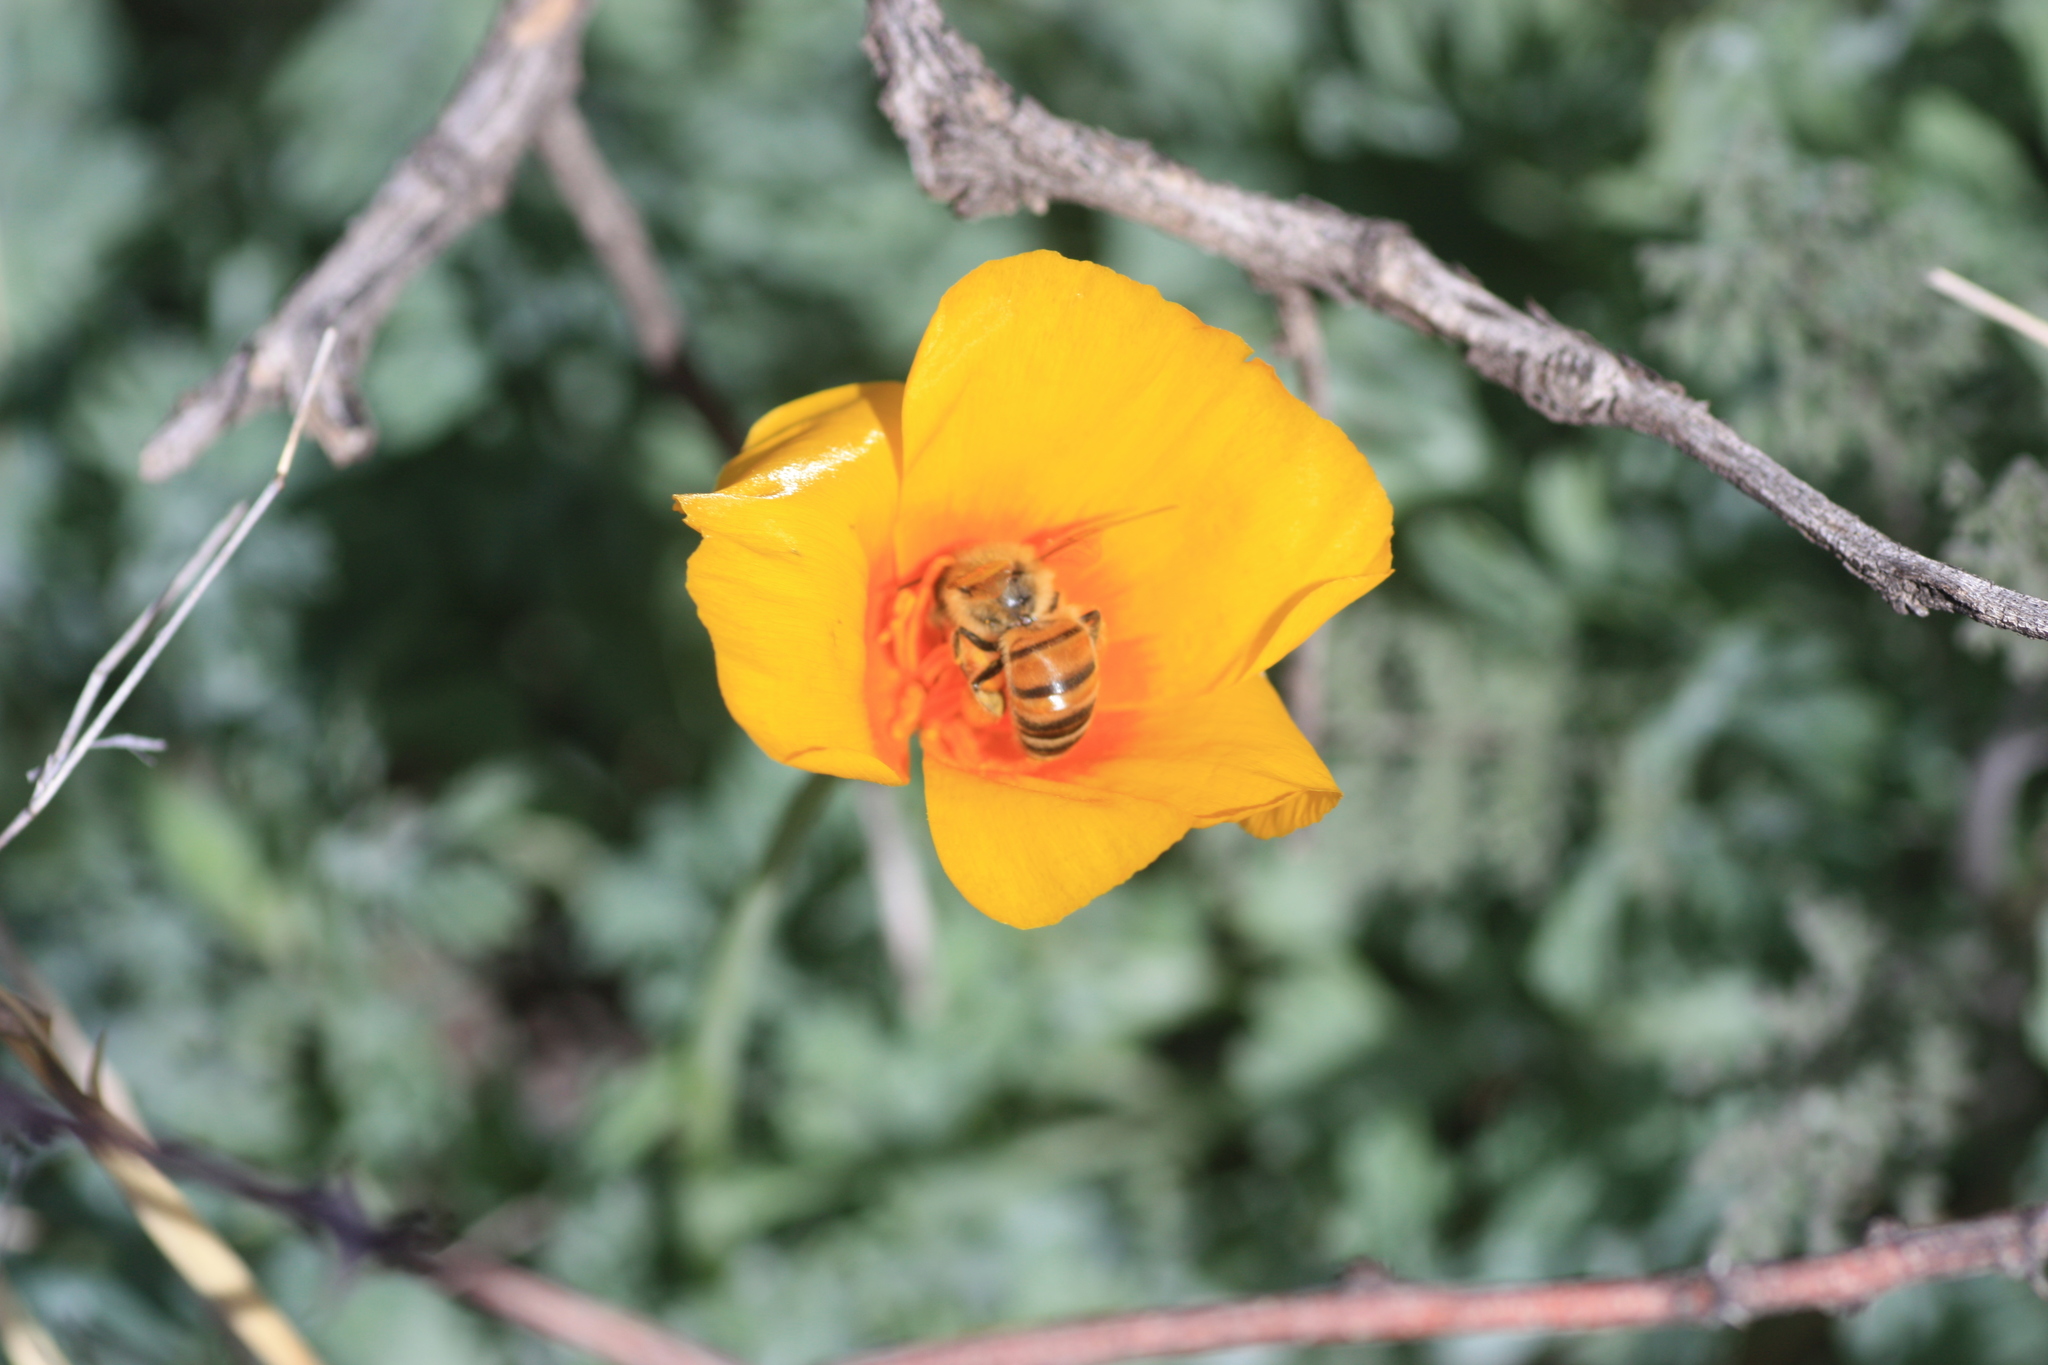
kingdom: Animalia
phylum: Arthropoda
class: Insecta
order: Hymenoptera
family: Apidae
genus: Apis
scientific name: Apis mellifera
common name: Honey bee
